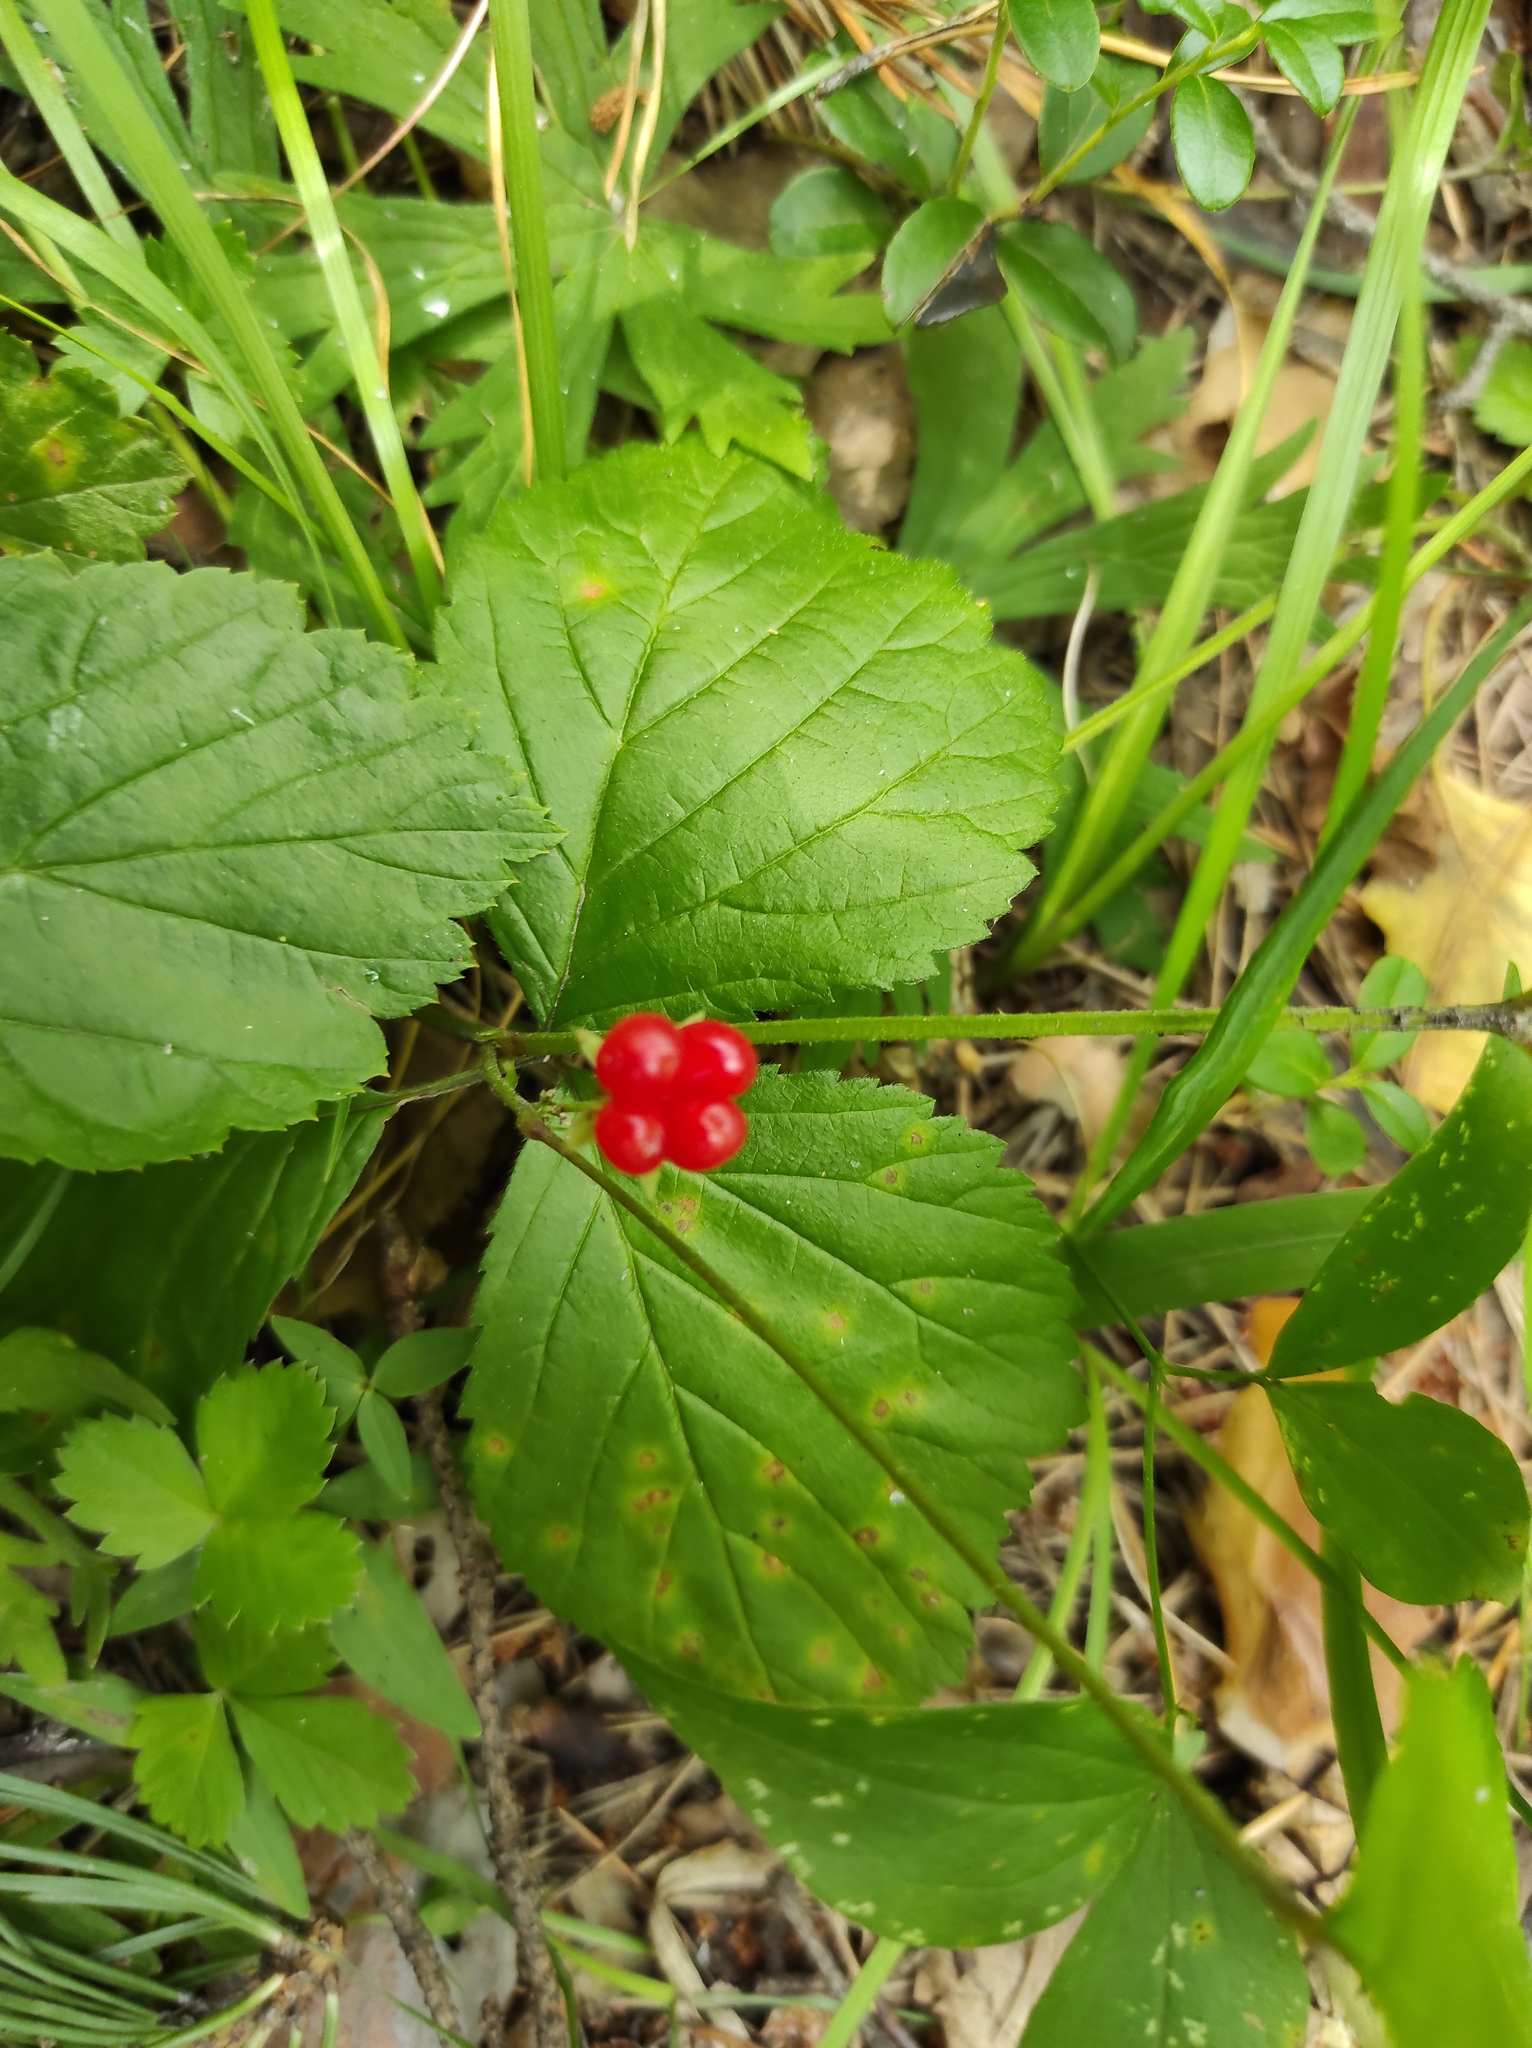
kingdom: Plantae
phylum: Tracheophyta
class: Magnoliopsida
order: Rosales
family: Rosaceae
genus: Rubus
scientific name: Rubus saxatilis
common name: Stone bramble
